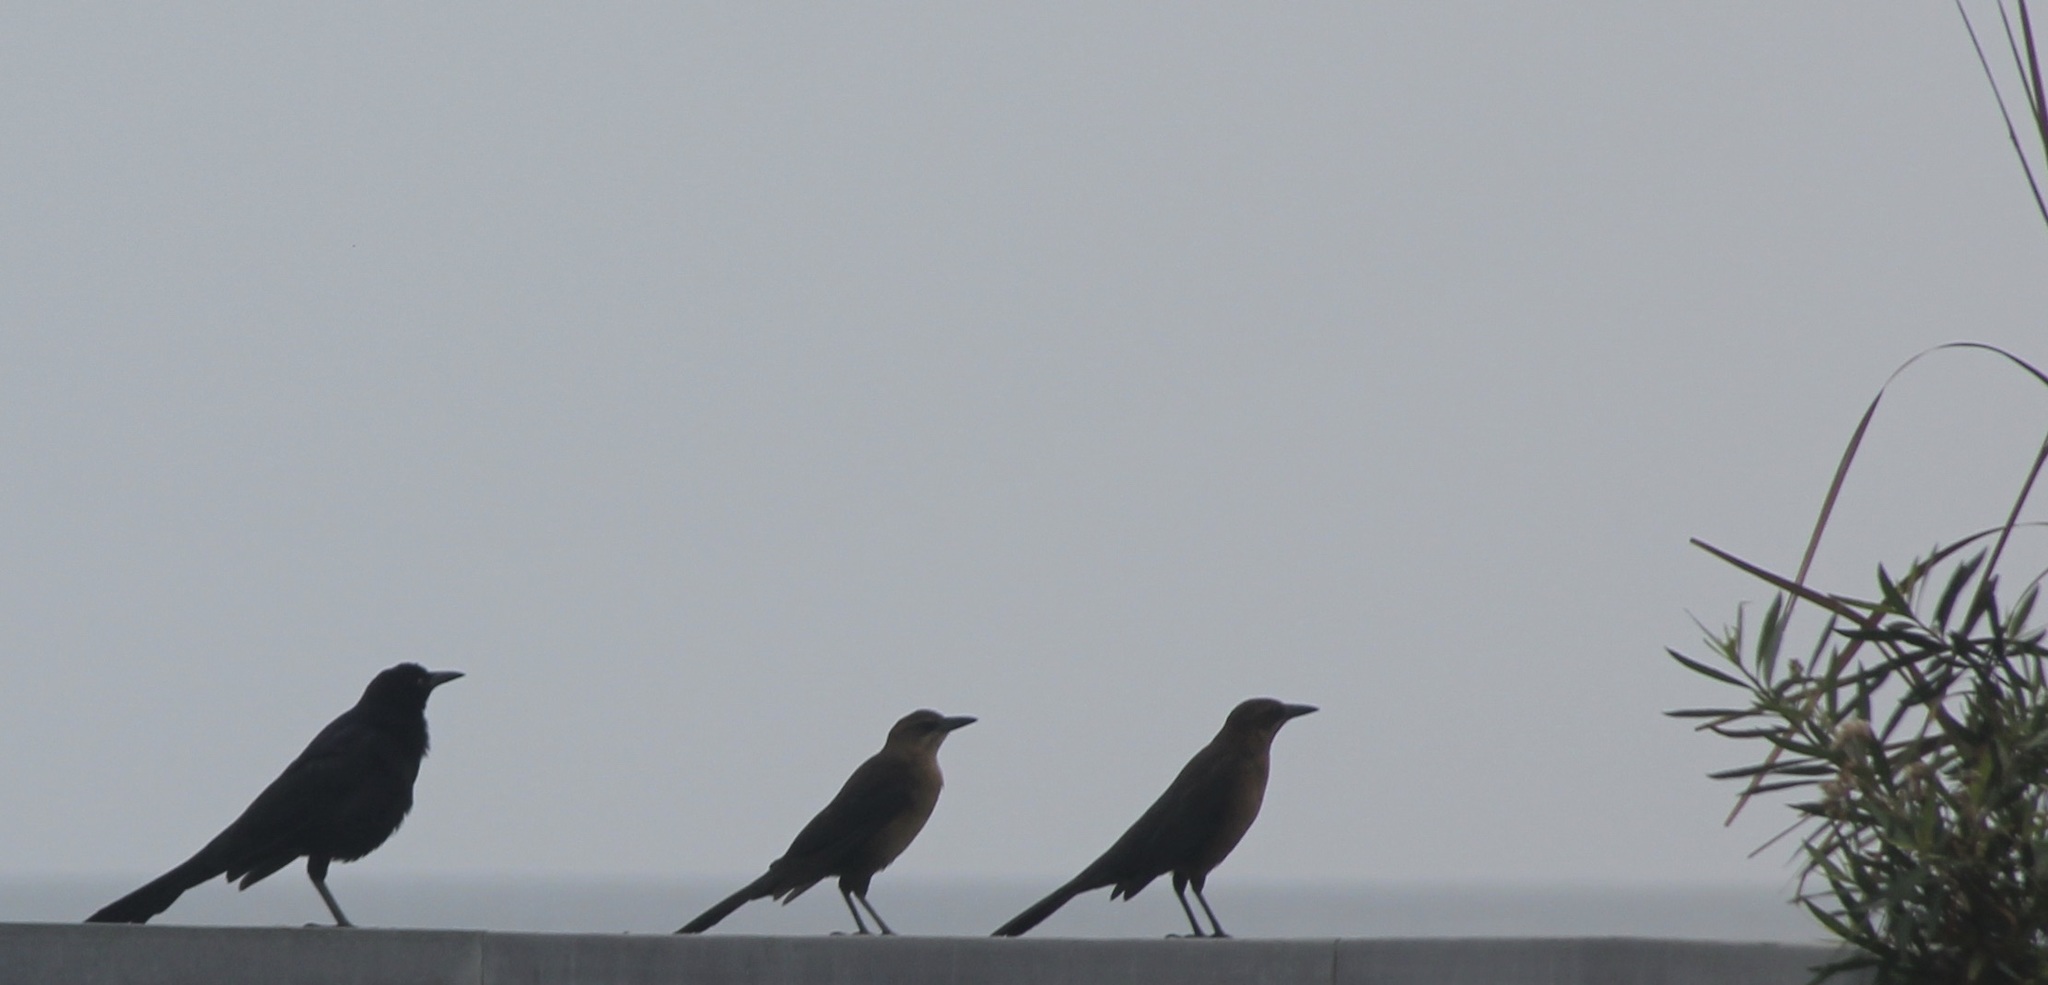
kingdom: Animalia
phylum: Chordata
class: Aves
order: Passeriformes
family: Icteridae
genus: Quiscalus
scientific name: Quiscalus mexicanus
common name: Great-tailed grackle
